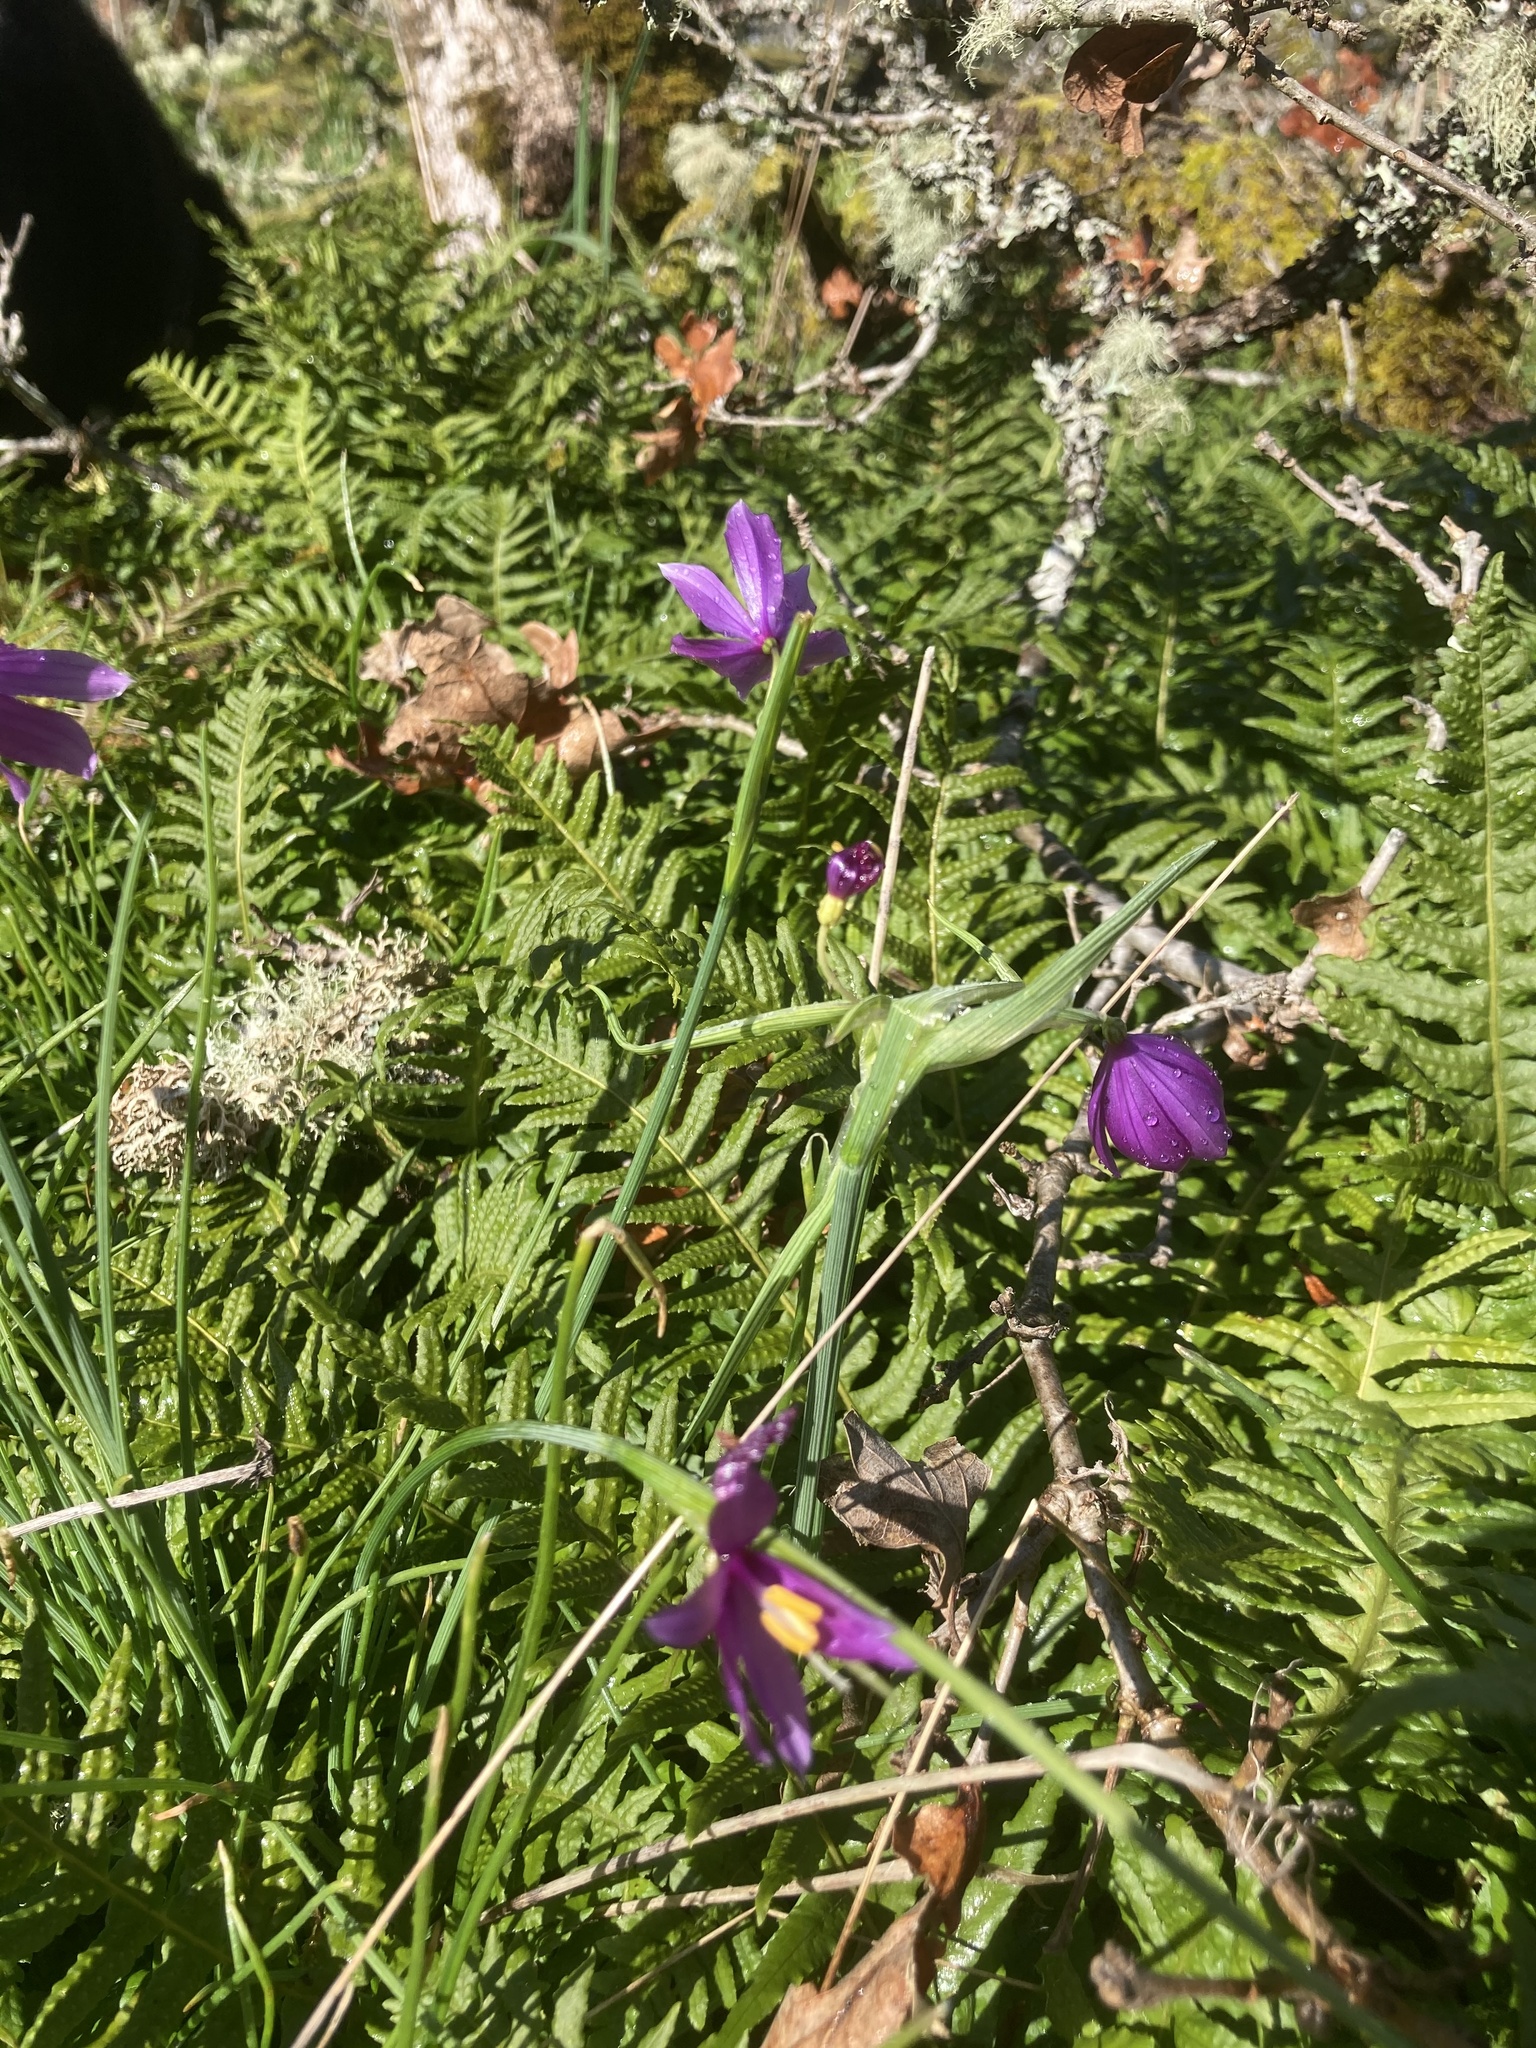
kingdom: Plantae
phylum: Tracheophyta
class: Liliopsida
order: Asparagales
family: Iridaceae
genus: Olsynium
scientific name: Olsynium douglasii
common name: Douglas' grasswidow
